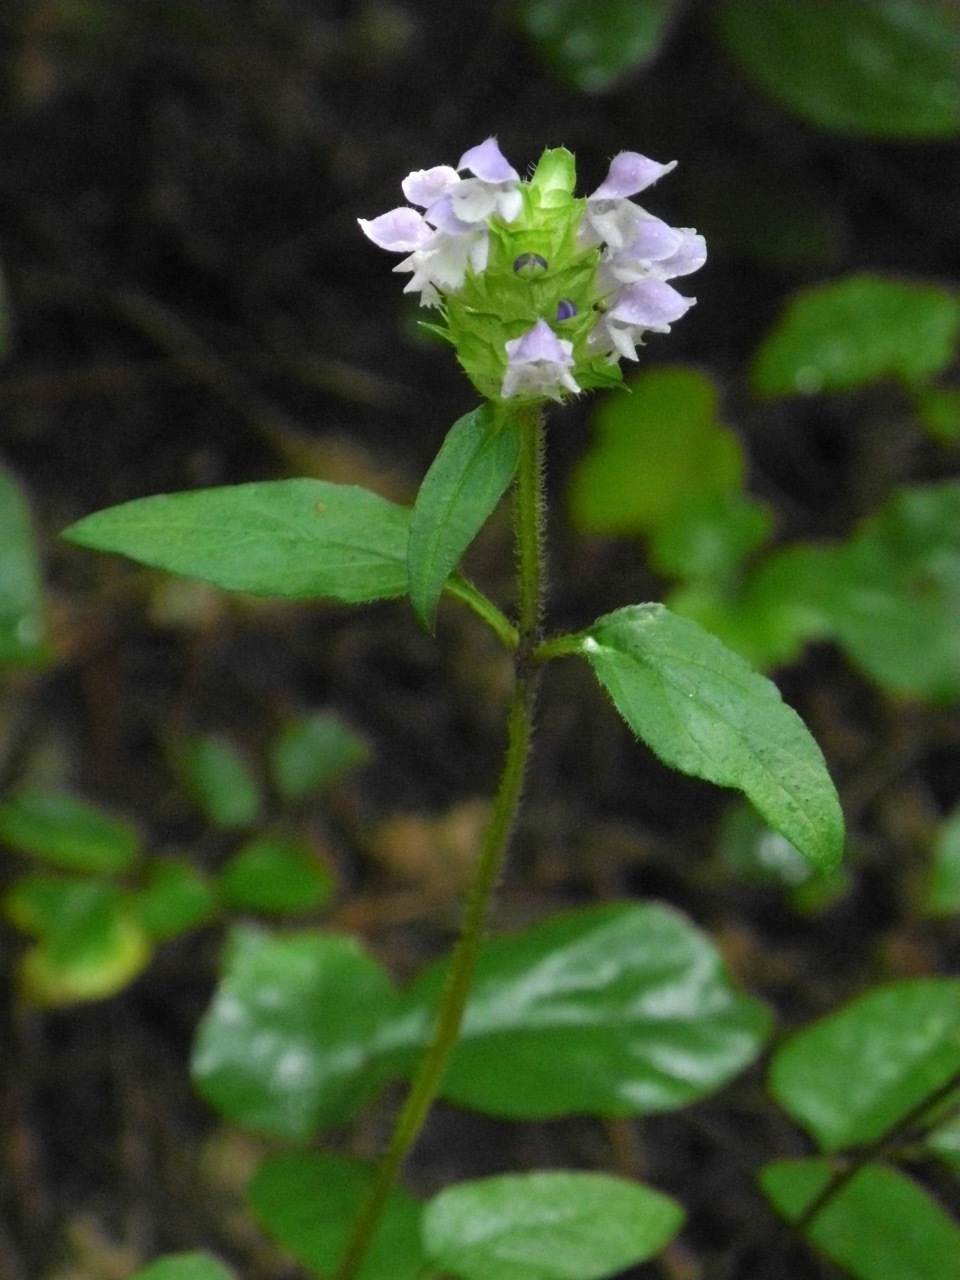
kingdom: Plantae
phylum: Tracheophyta
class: Magnoliopsida
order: Lamiales
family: Lamiaceae
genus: Prunella
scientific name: Prunella vulgaris
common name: Heal-all
